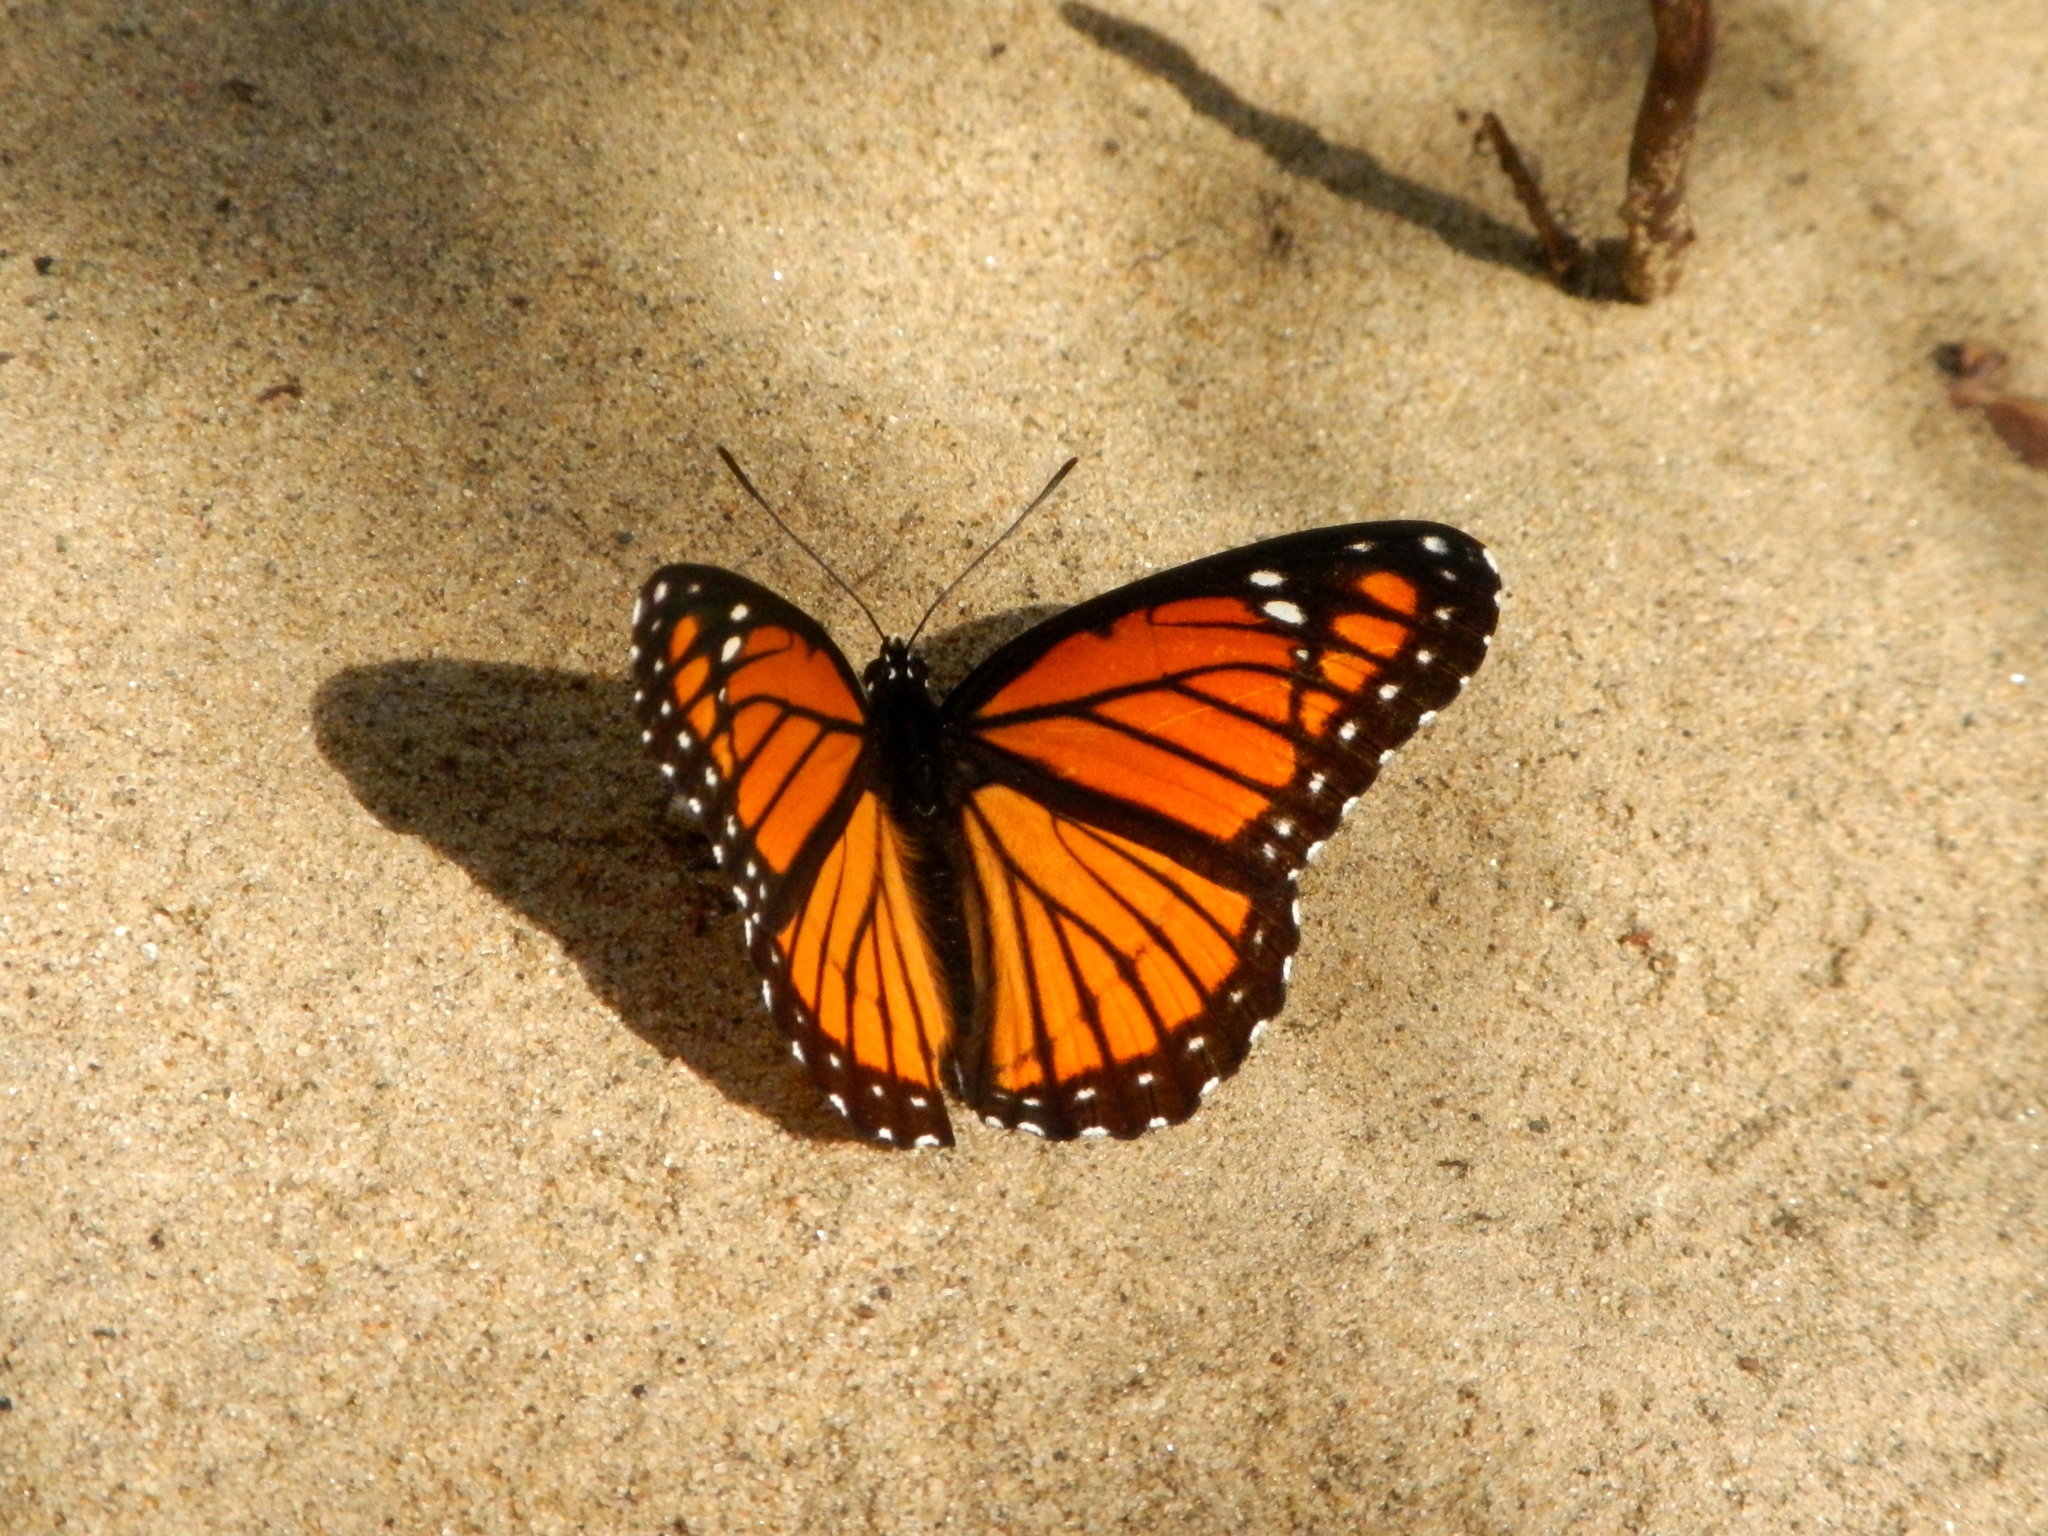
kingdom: Animalia
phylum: Arthropoda
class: Insecta
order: Lepidoptera
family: Nymphalidae
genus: Limenitis
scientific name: Limenitis archippus
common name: Viceroy
